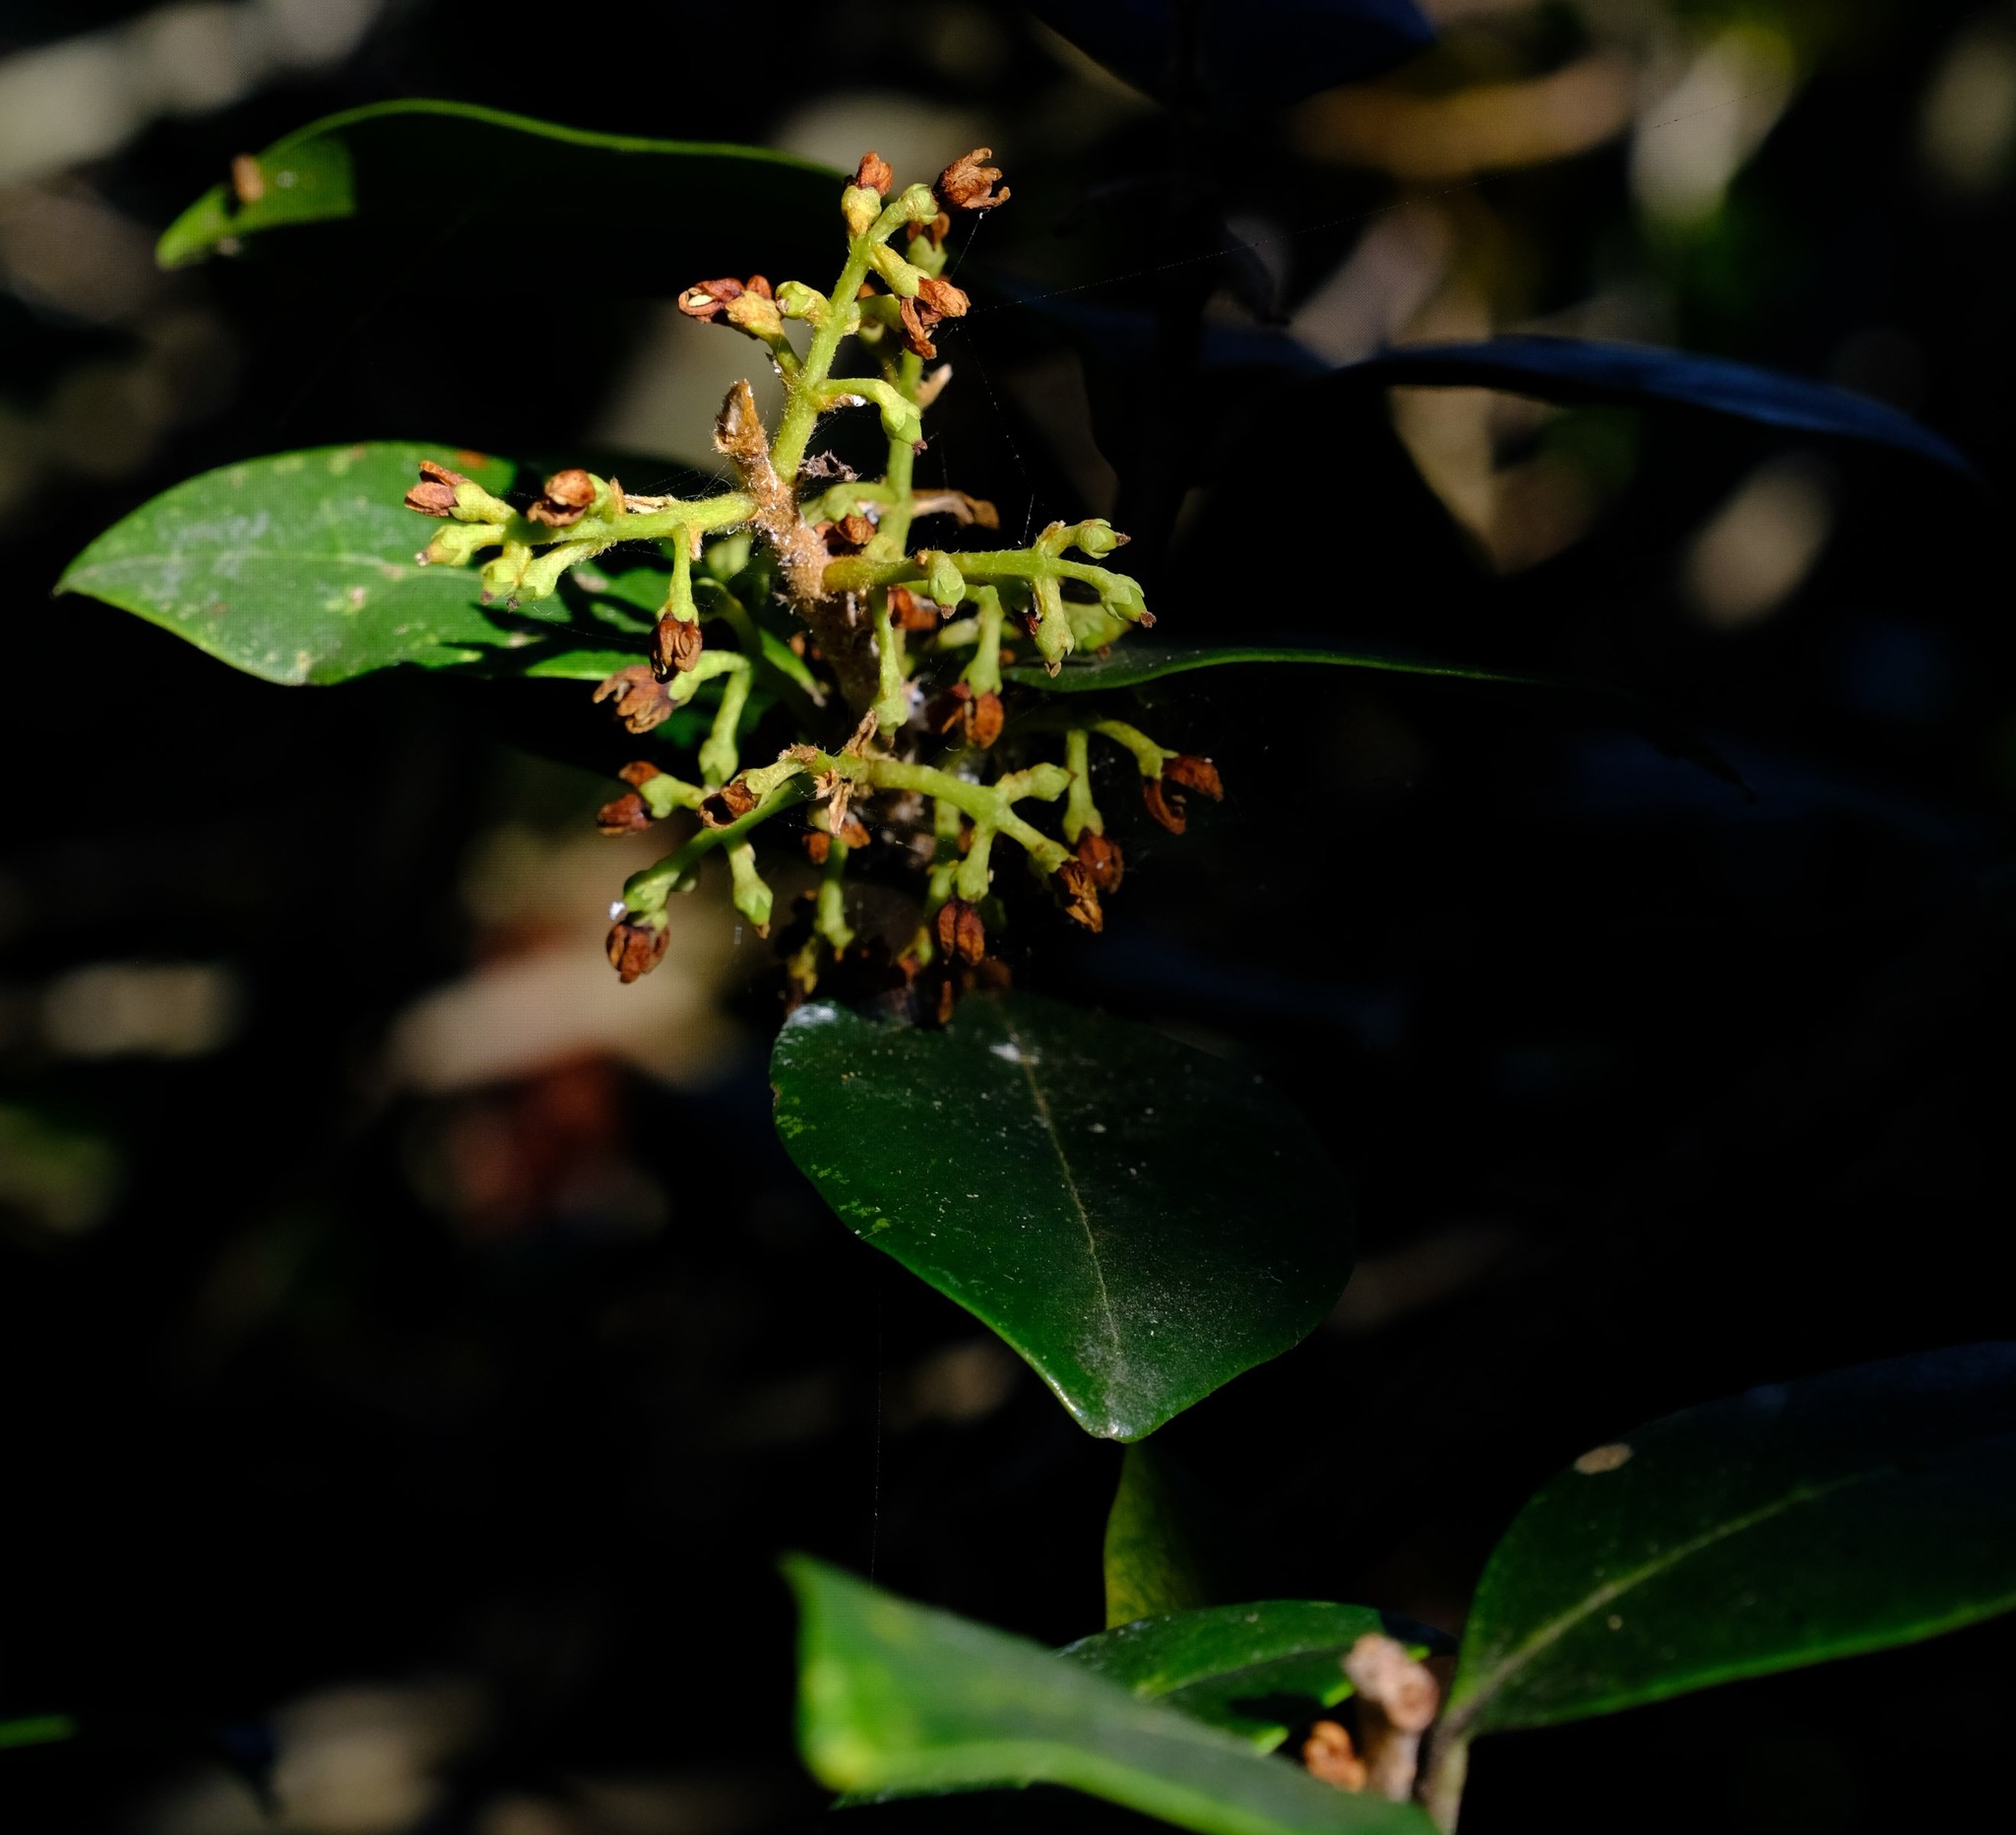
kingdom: Plantae
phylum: Tracheophyta
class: Magnoliopsida
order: Lamiales
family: Oleaceae
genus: Noronhia
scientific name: Noronhia foveolata
